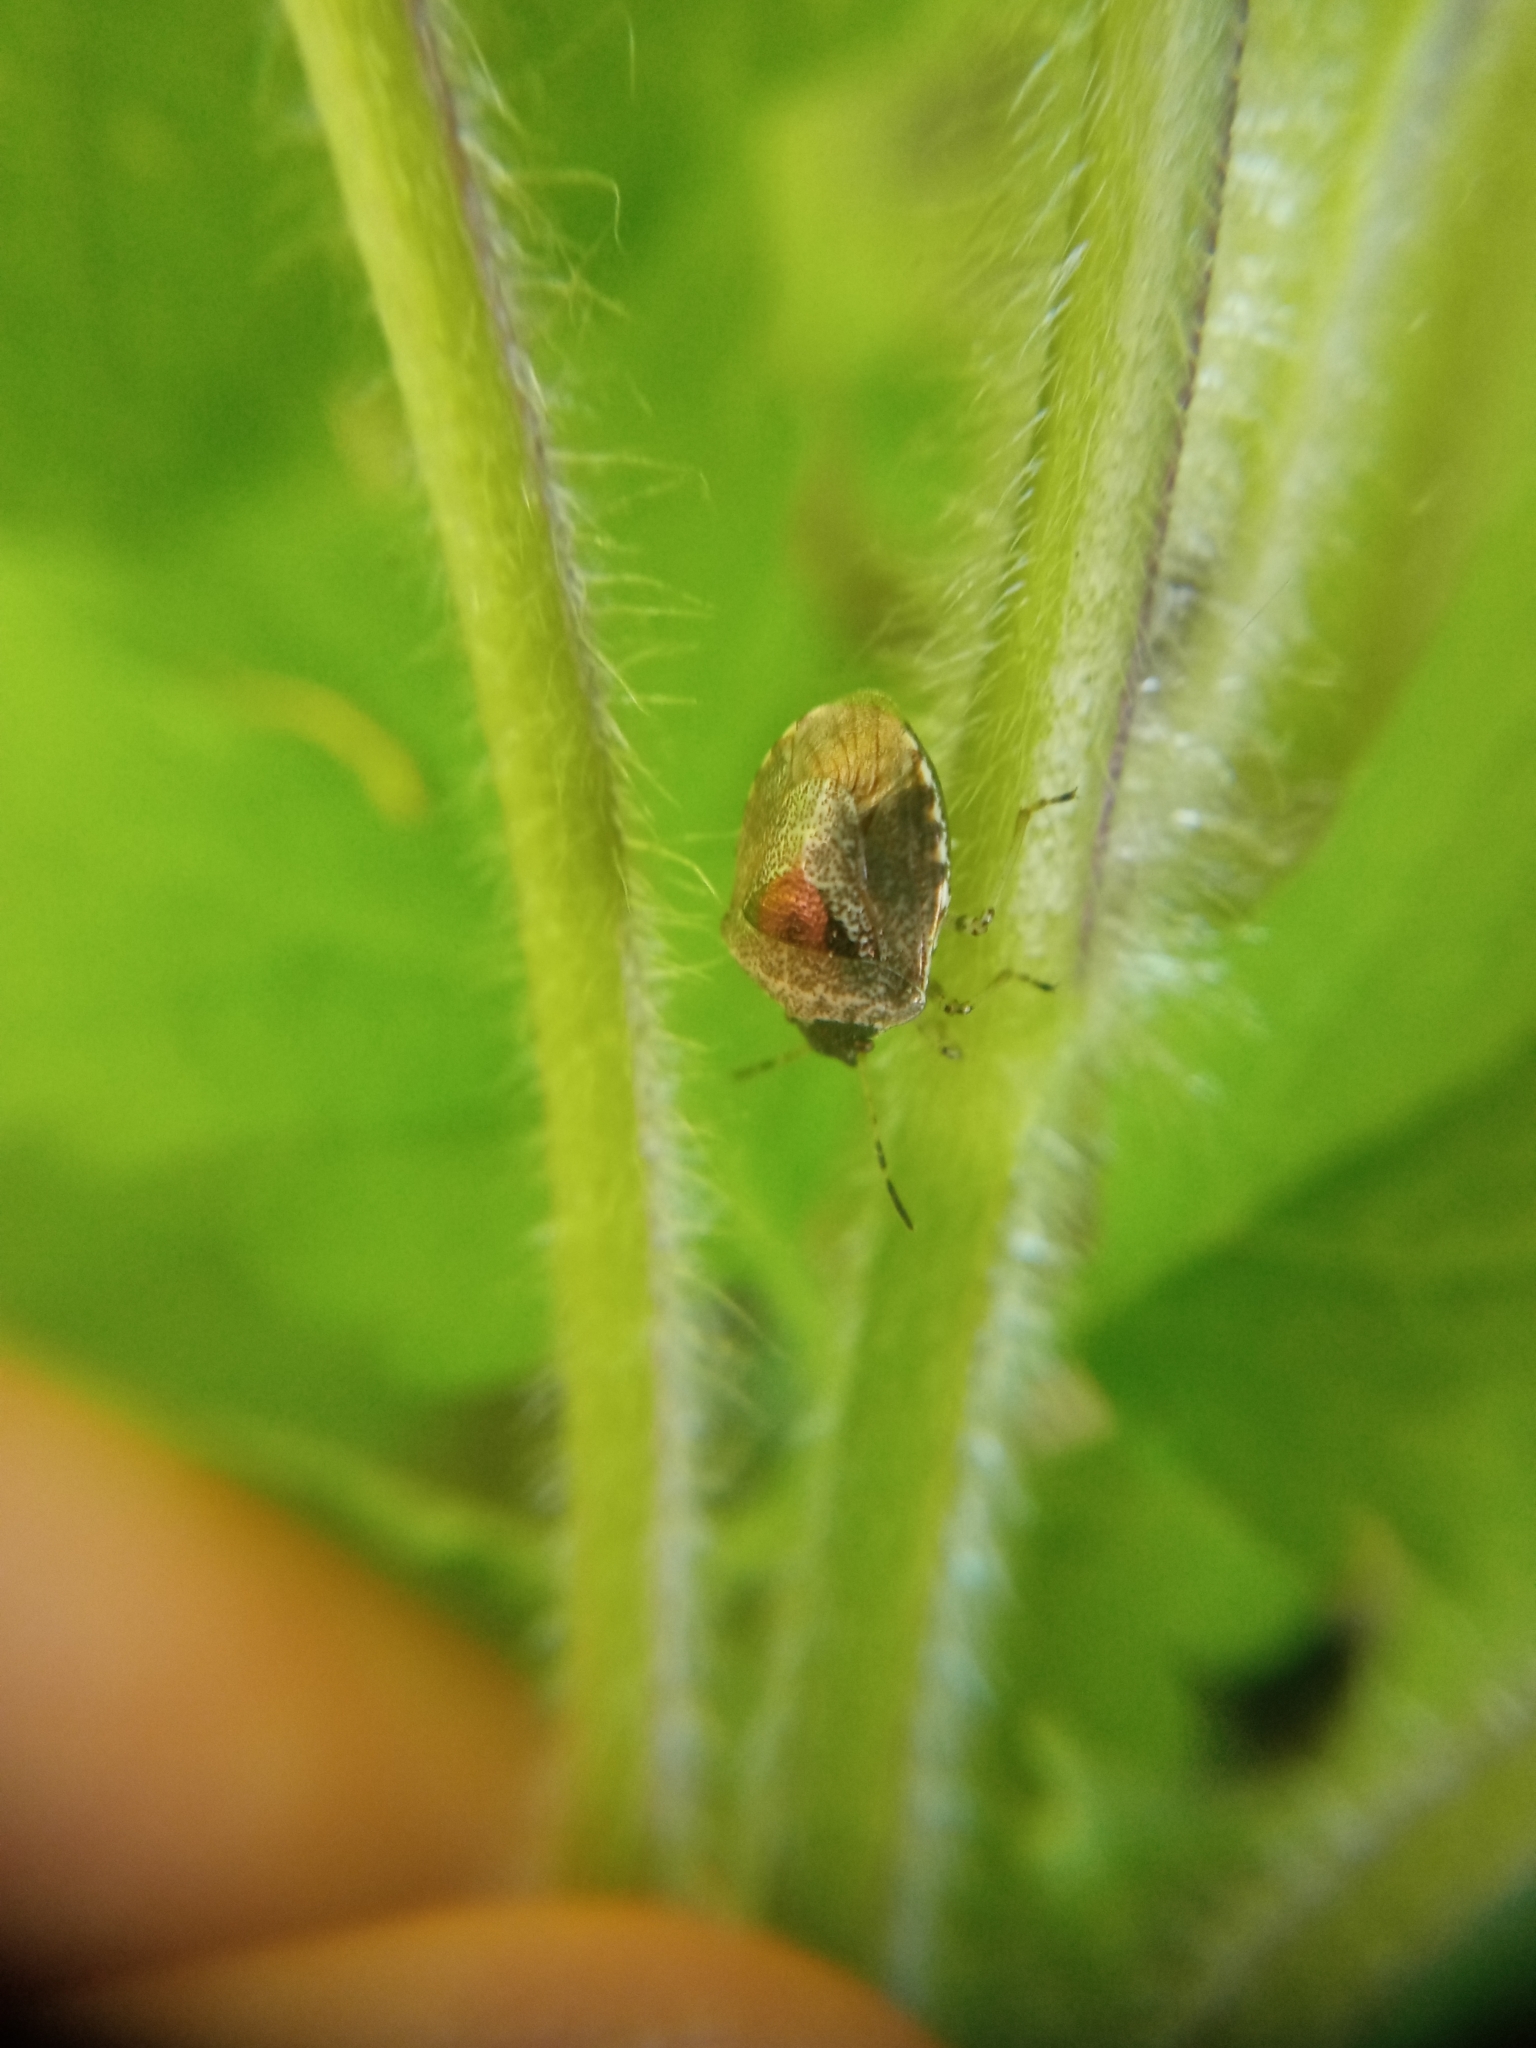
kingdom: Animalia
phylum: Arthropoda
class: Insecta
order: Hemiptera
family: Pentatomidae
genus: Eysarcoris
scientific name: Eysarcoris venustissimus
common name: Woundwort shieldbug
